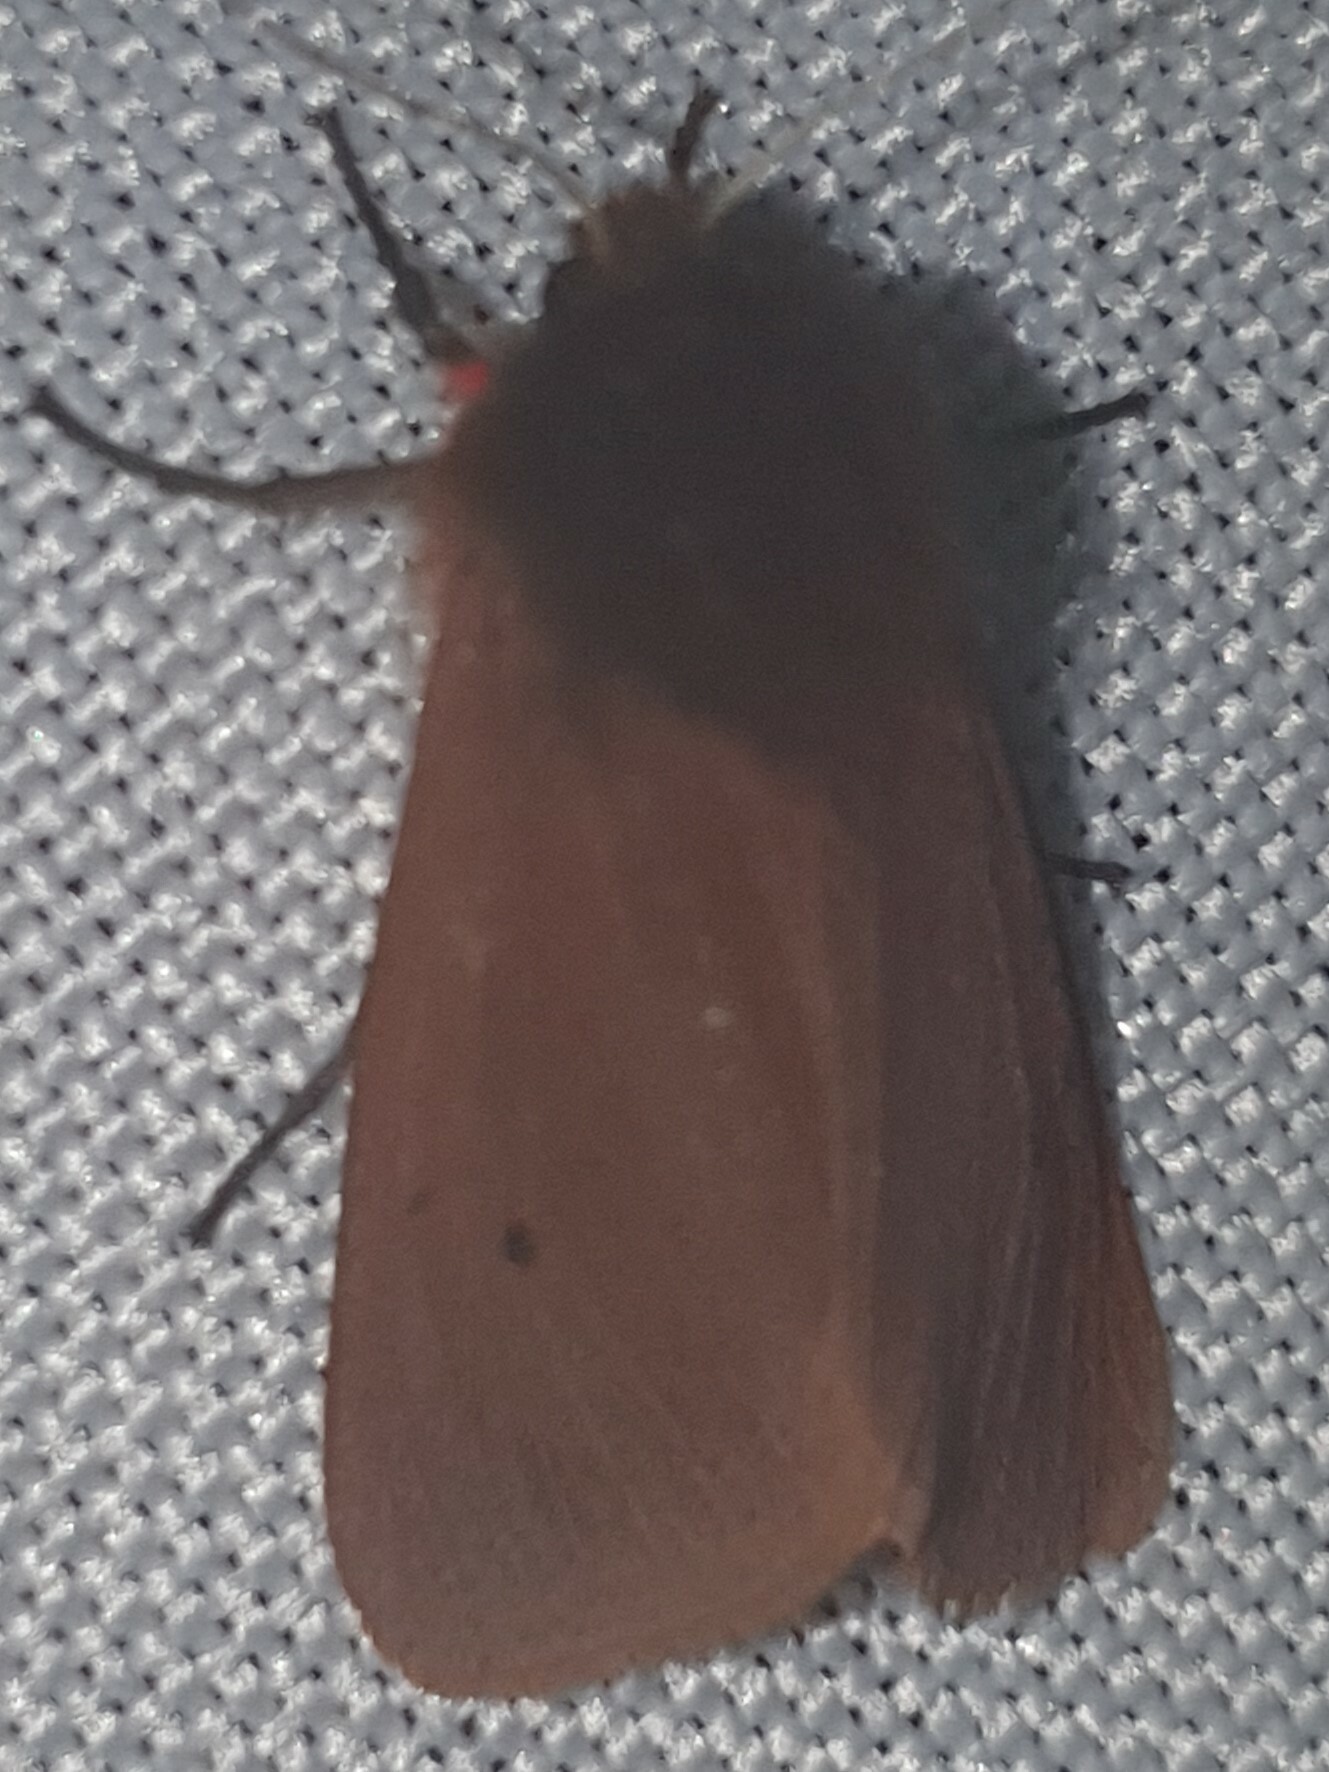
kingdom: Animalia
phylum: Arthropoda
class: Insecta
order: Lepidoptera
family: Erebidae
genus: Phragmatobia
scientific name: Phragmatobia fuliginosa
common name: Ruby tiger
